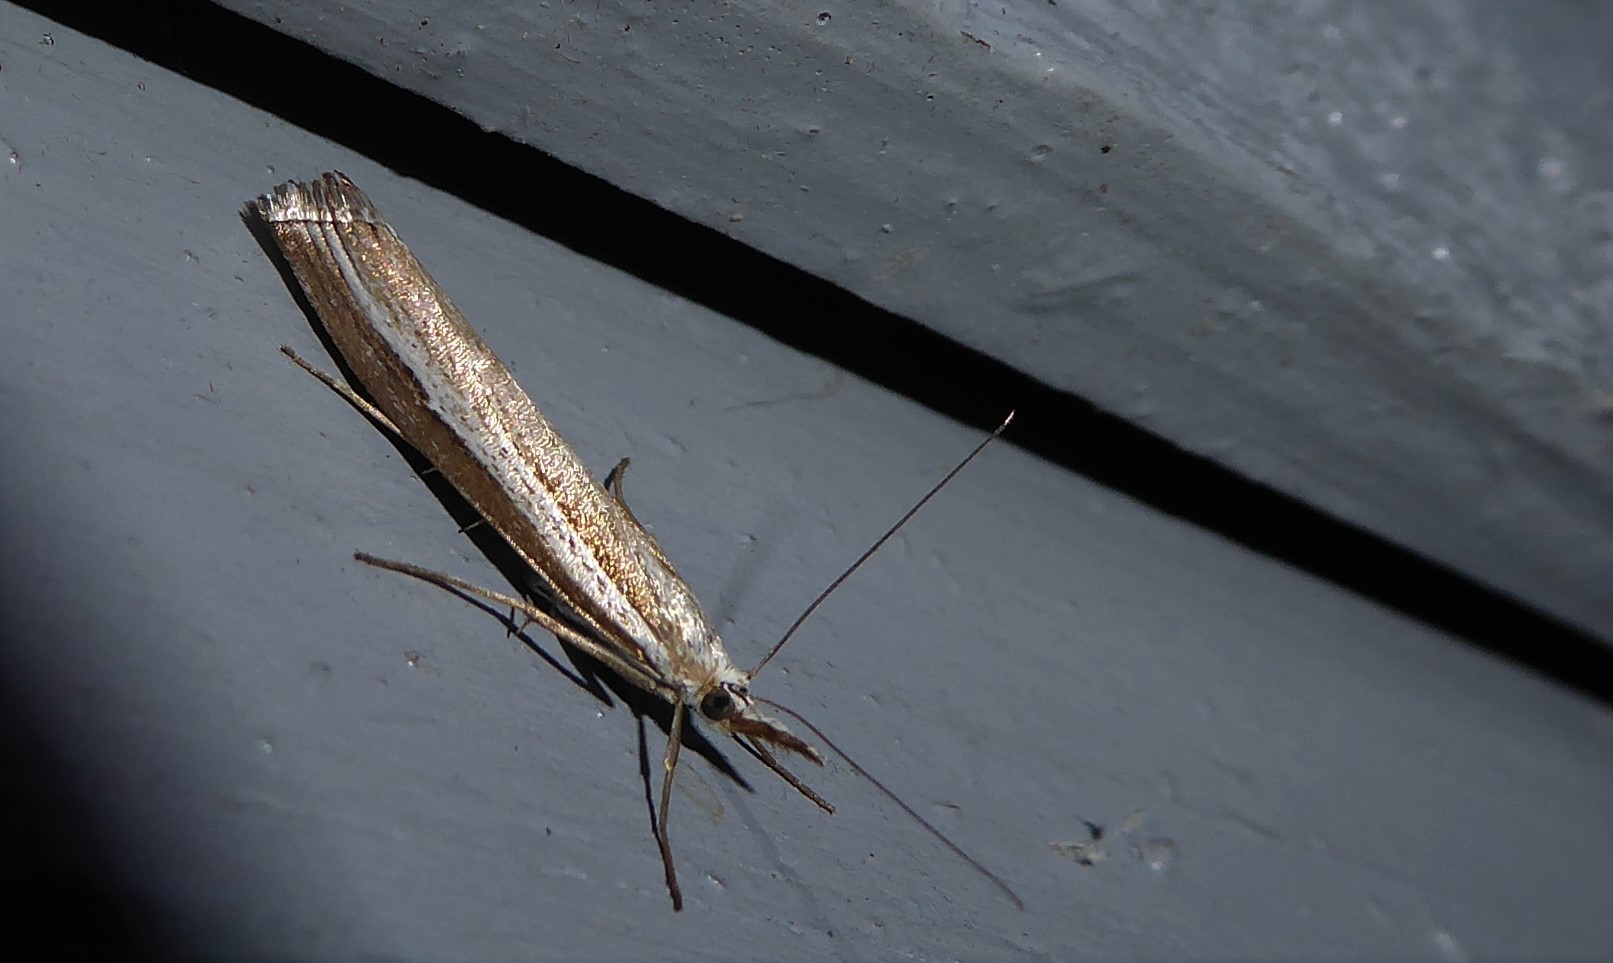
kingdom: Animalia
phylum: Arthropoda
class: Insecta
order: Lepidoptera
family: Crambidae
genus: Orocrambus
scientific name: Orocrambus vittellus
